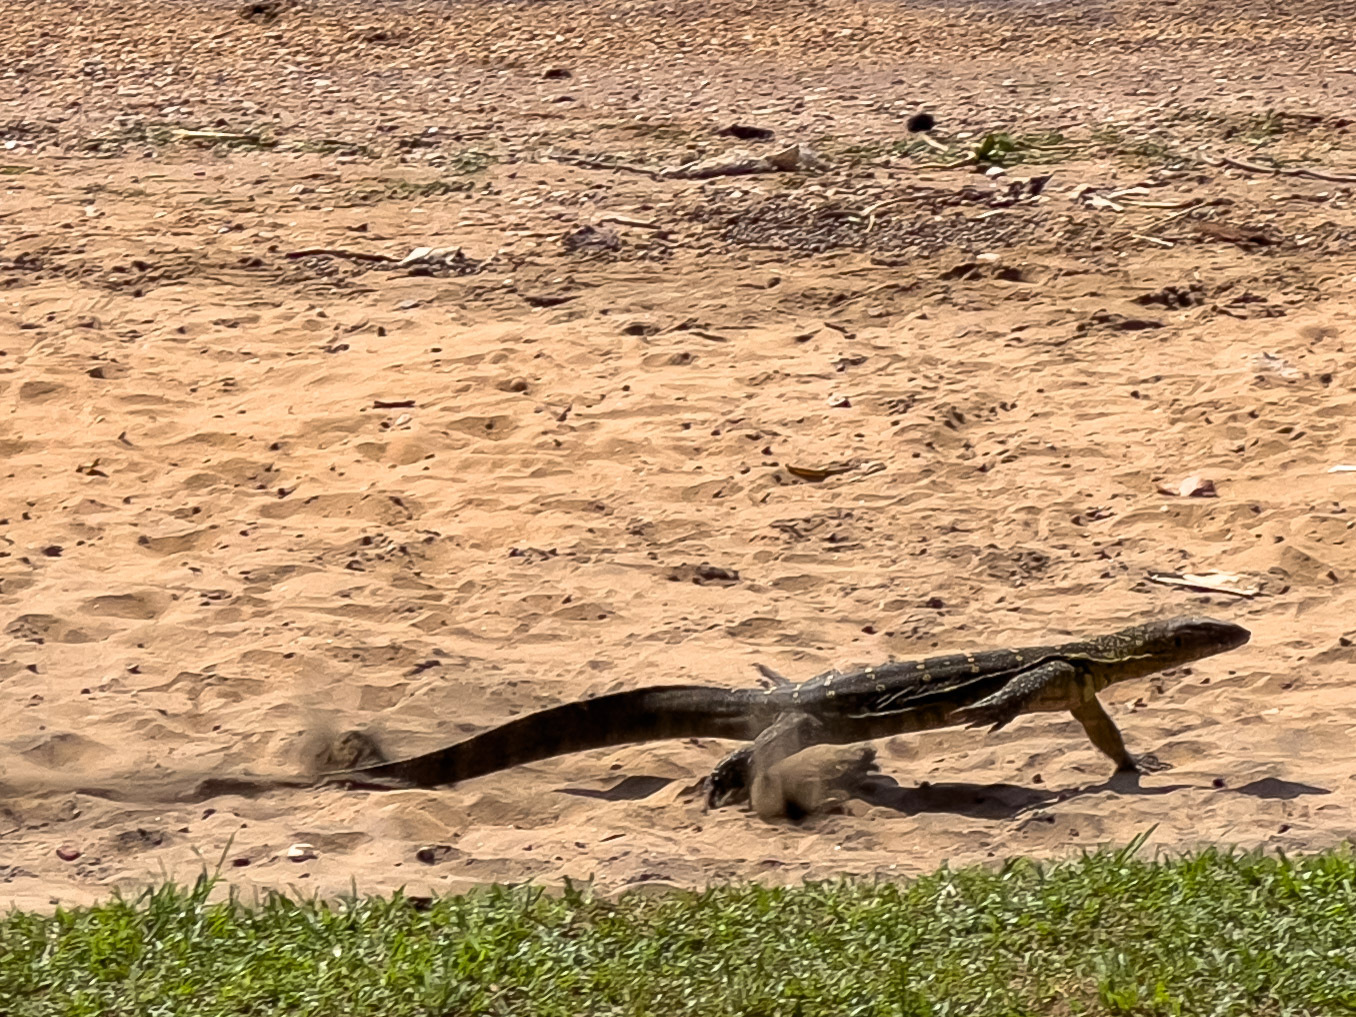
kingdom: Animalia
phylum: Chordata
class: Squamata
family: Varanidae
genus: Varanus
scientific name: Varanus niloticus
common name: Nile monitor
